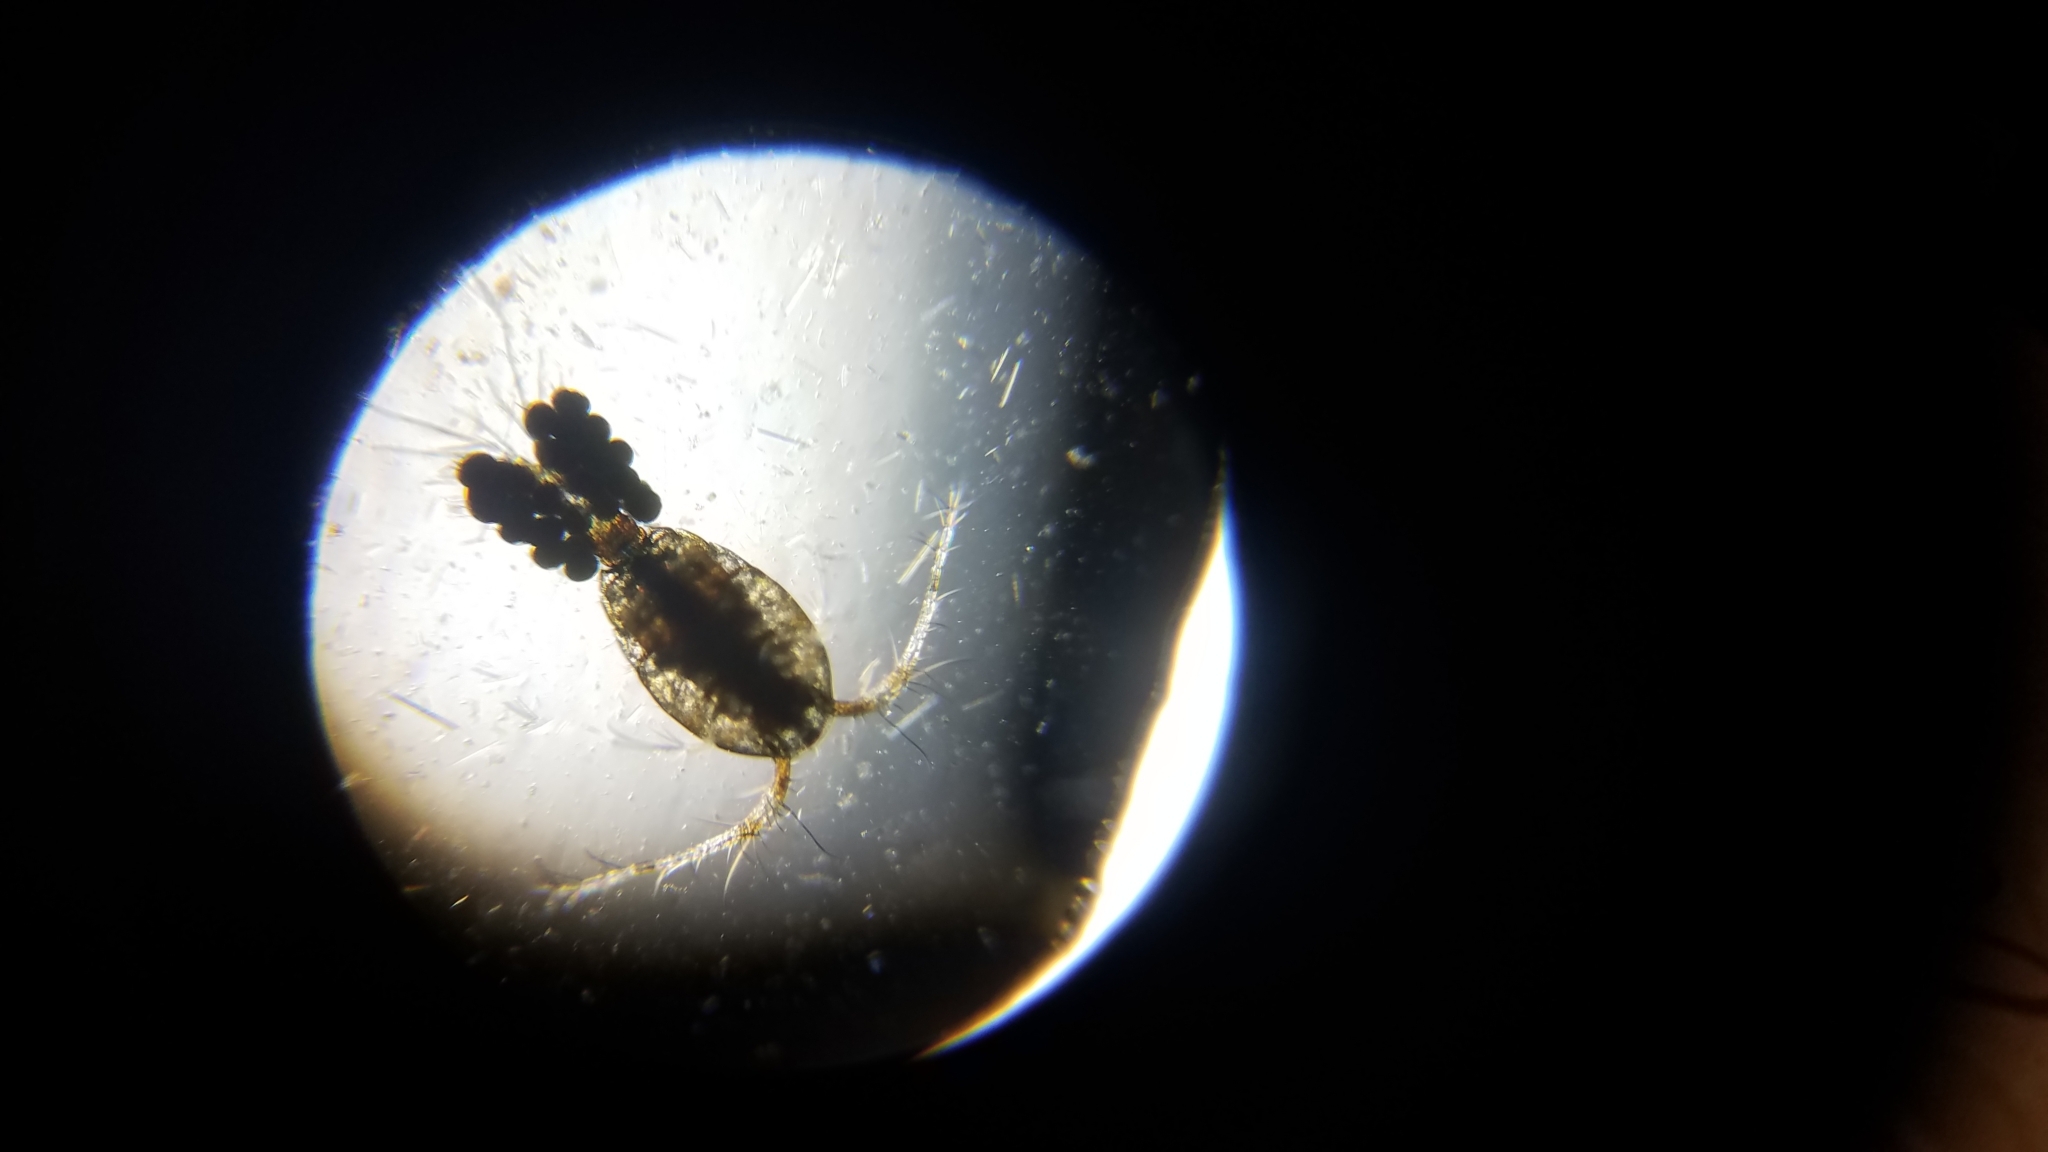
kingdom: Animalia
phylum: Arthropoda
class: Copepoda
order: Cyclopoida
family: Cyclopidae
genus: Mesocyclops
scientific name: Mesocyclops
